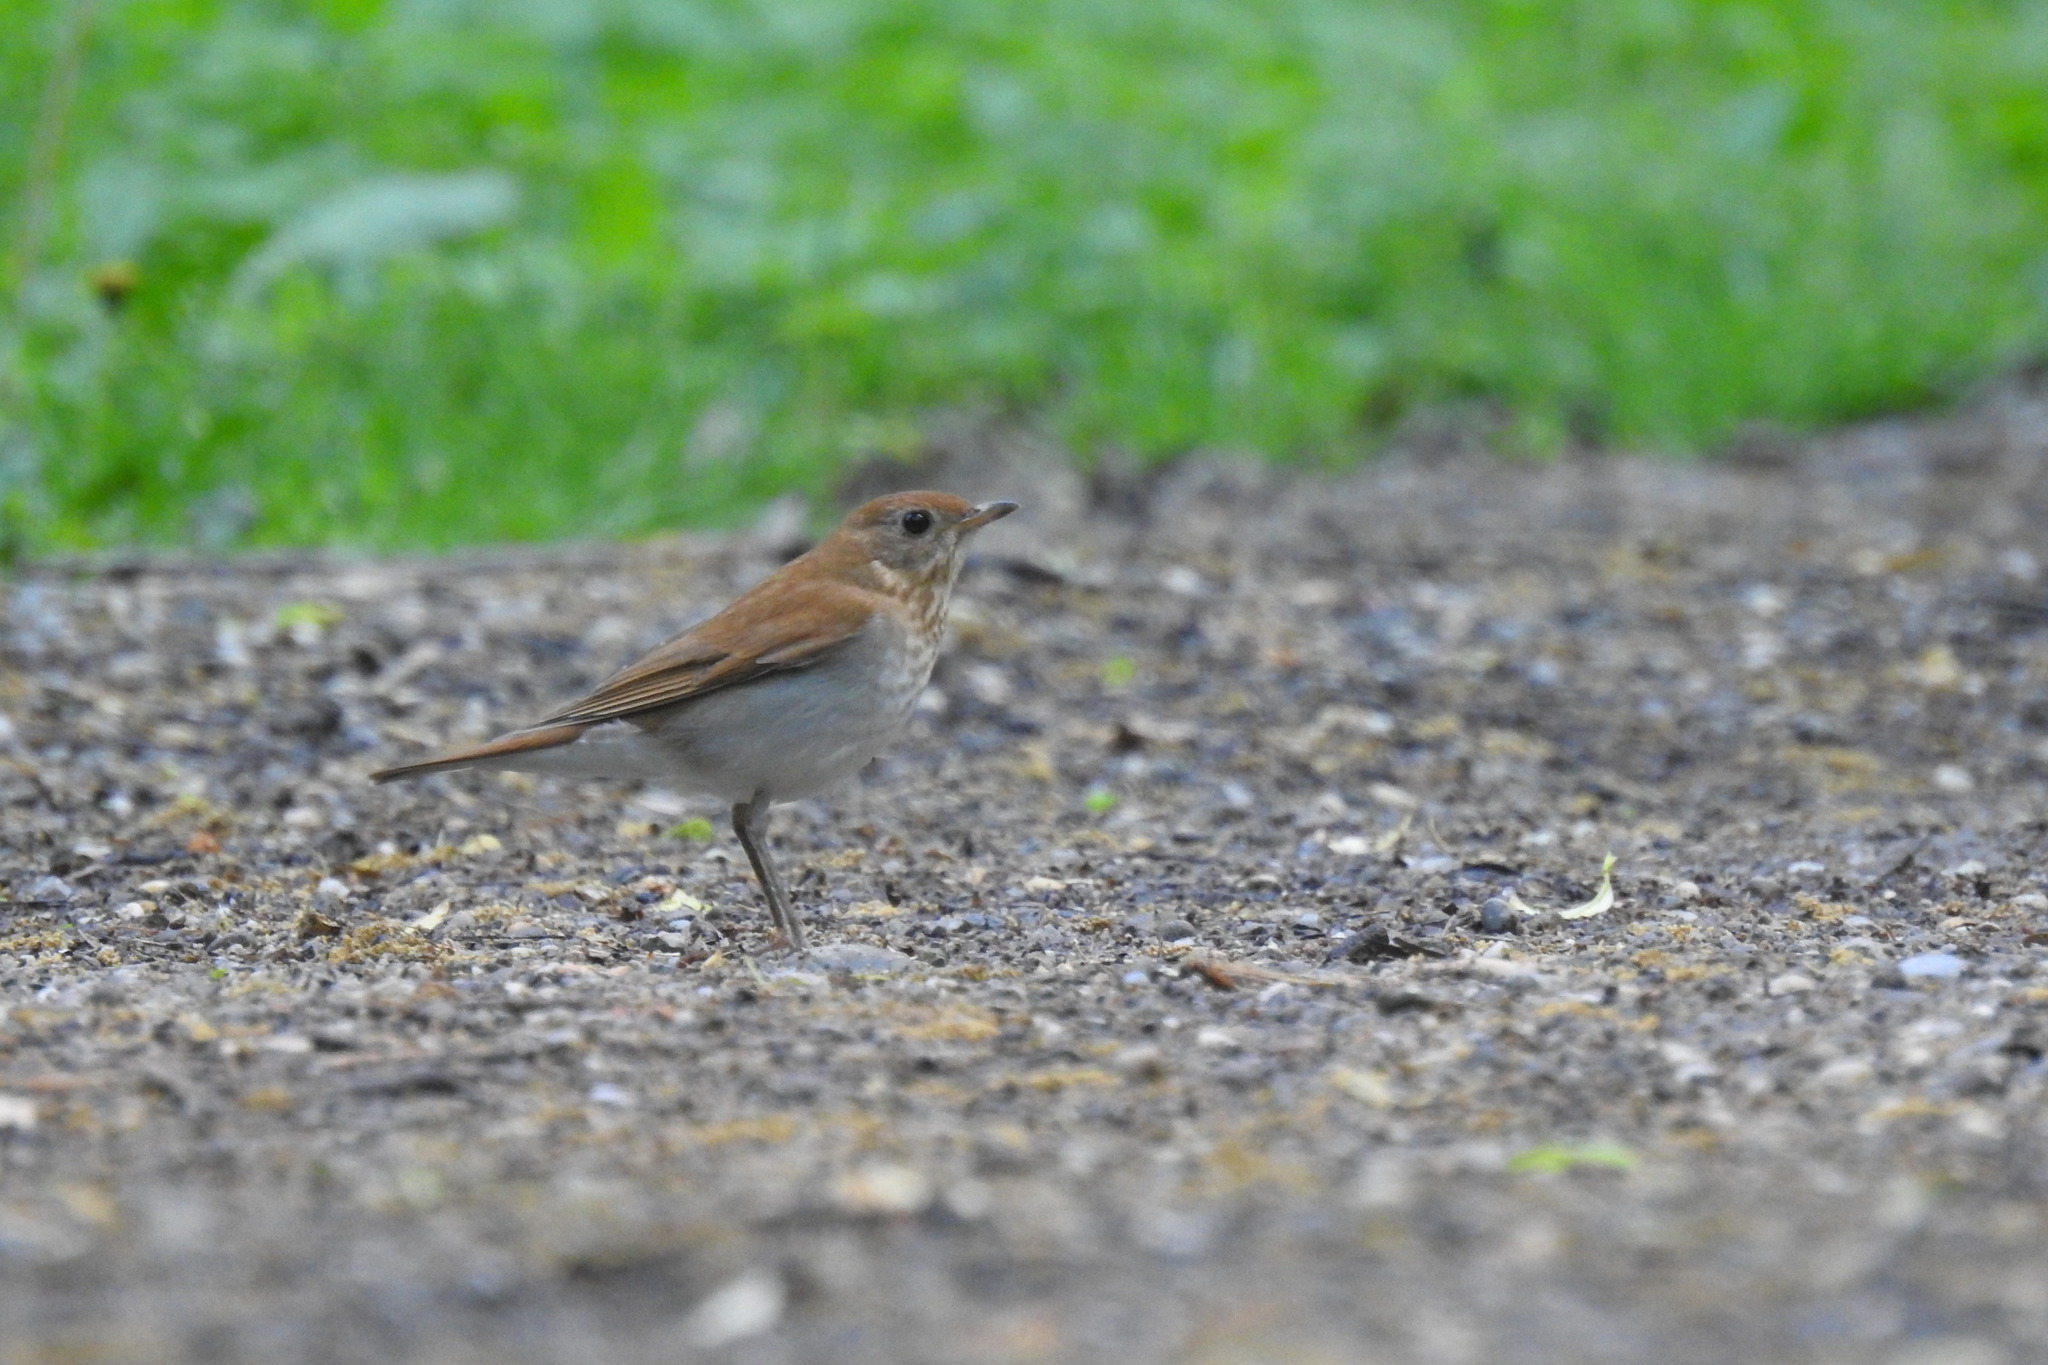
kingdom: Animalia
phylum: Chordata
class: Aves
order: Passeriformes
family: Turdidae
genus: Catharus
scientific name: Catharus fuscescens
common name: Veery
